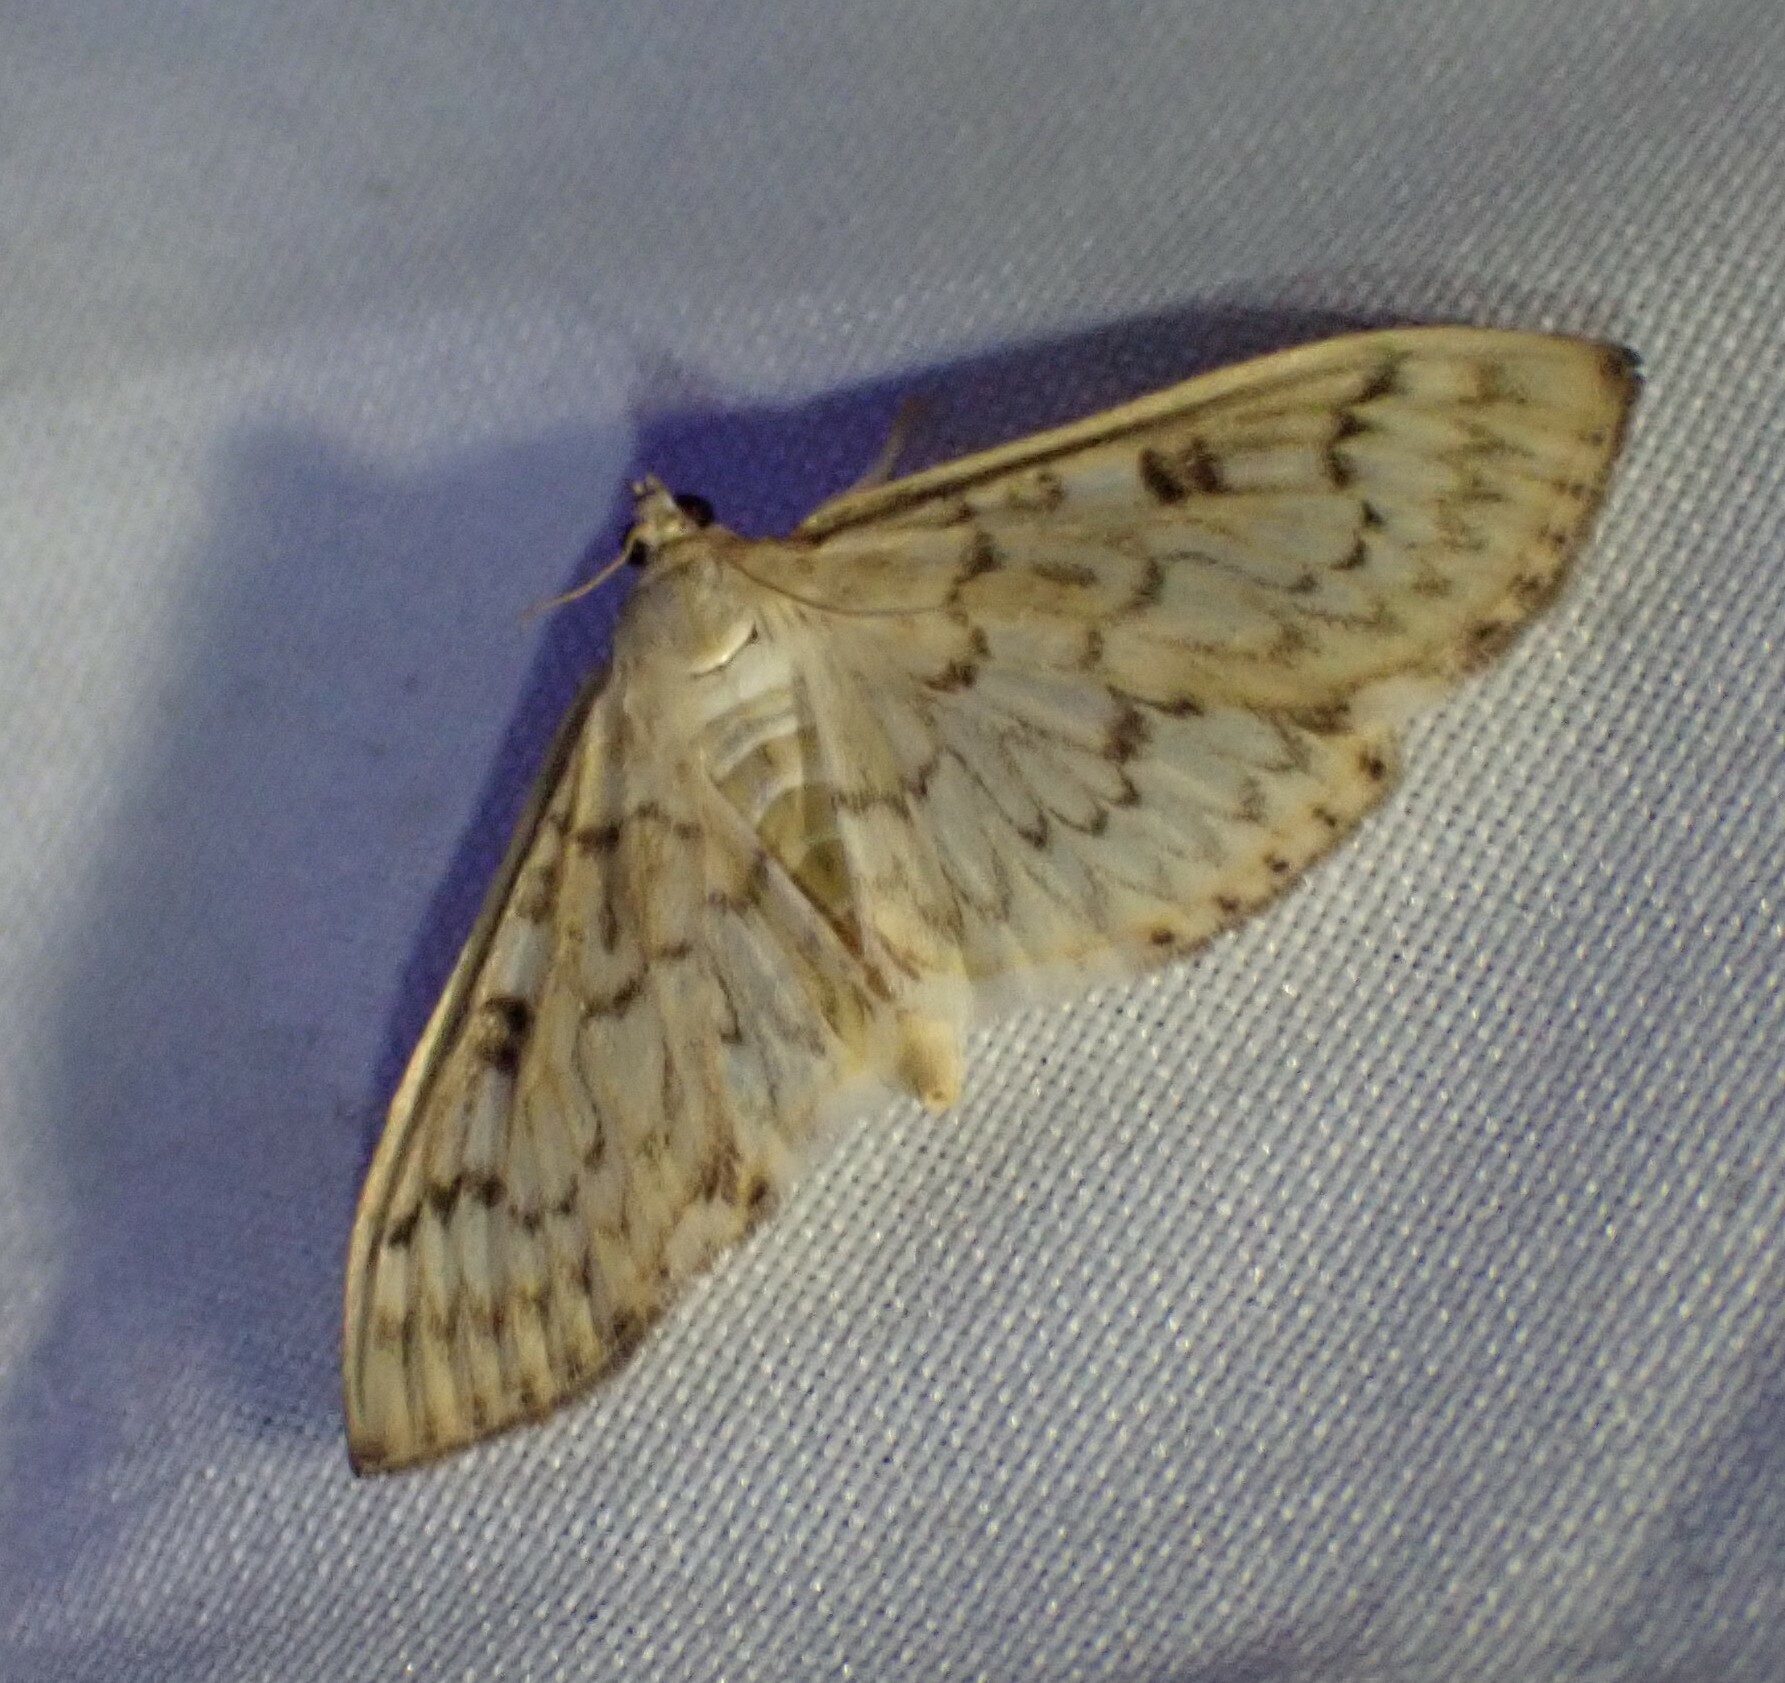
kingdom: Animalia
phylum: Arthropoda
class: Insecta
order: Lepidoptera
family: Crambidae
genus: Herpetogramma
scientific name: Herpetogramma aquilonalis
